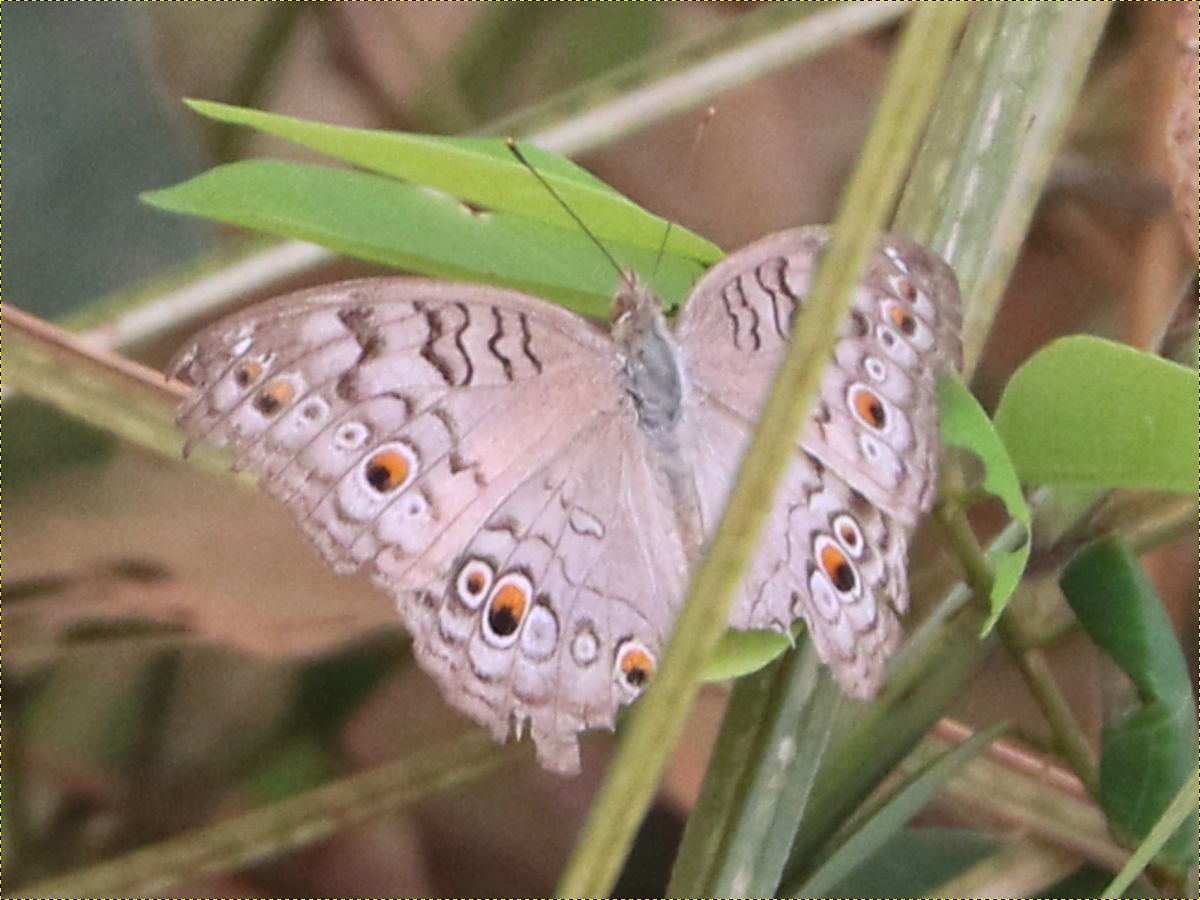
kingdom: Animalia
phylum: Arthropoda
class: Insecta
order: Lepidoptera
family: Nymphalidae
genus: Junonia
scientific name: Junonia atlites
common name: Grey pansy
